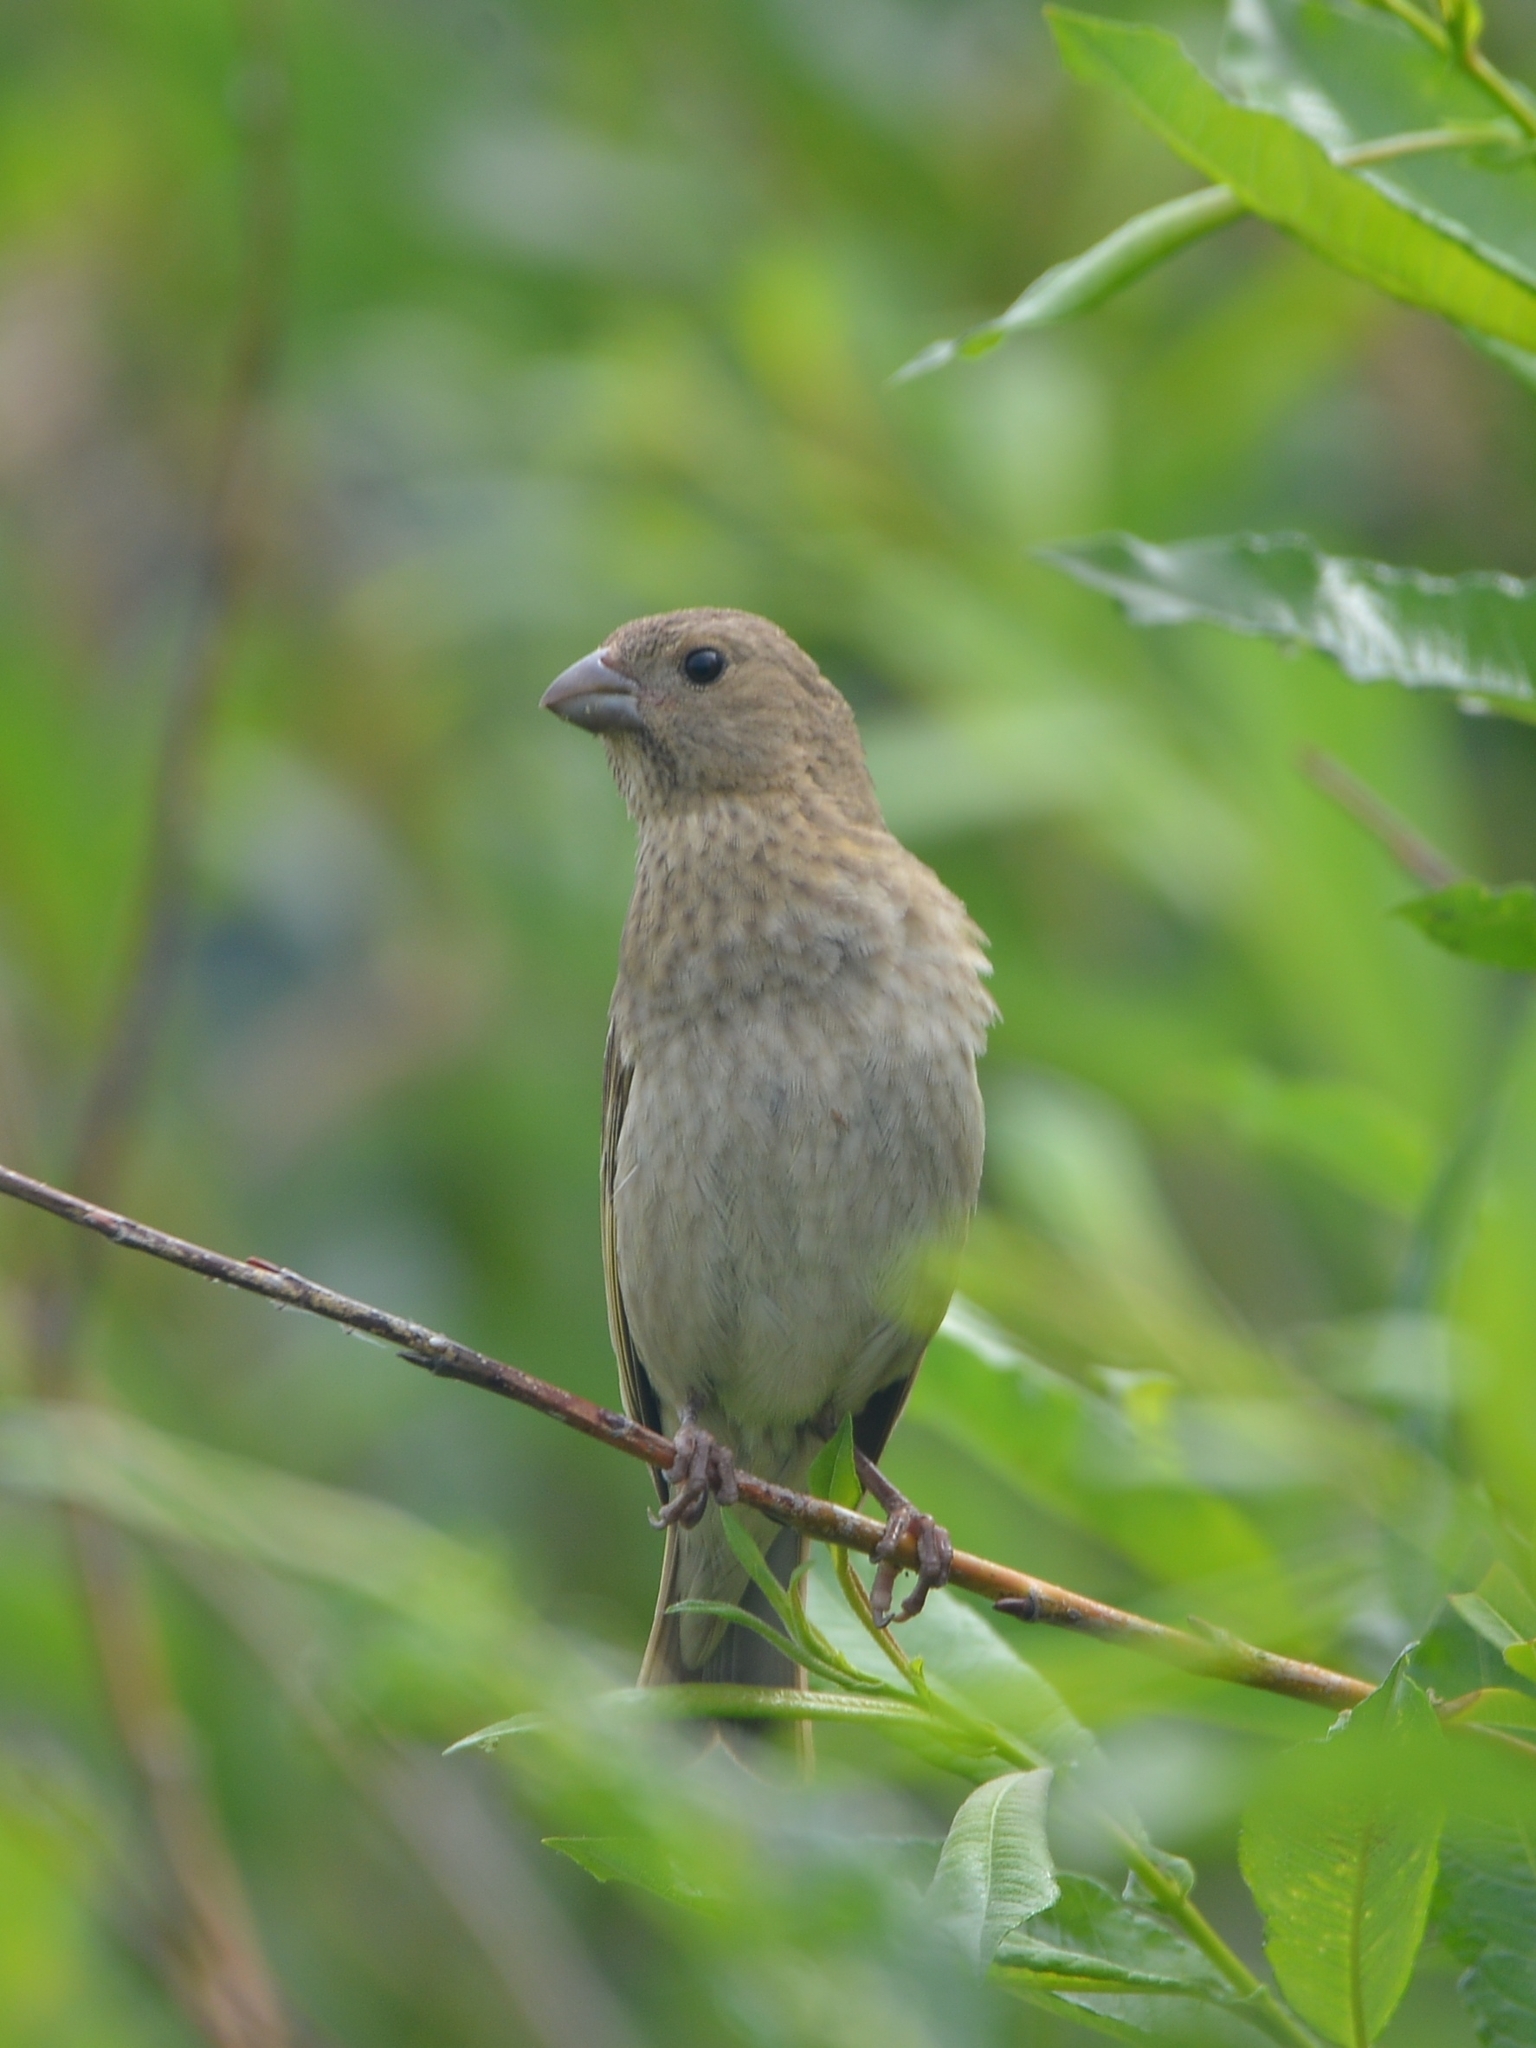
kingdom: Animalia
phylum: Chordata
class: Aves
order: Passeriformes
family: Fringillidae
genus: Carpodacus
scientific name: Carpodacus erythrinus
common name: Common rosefinch
